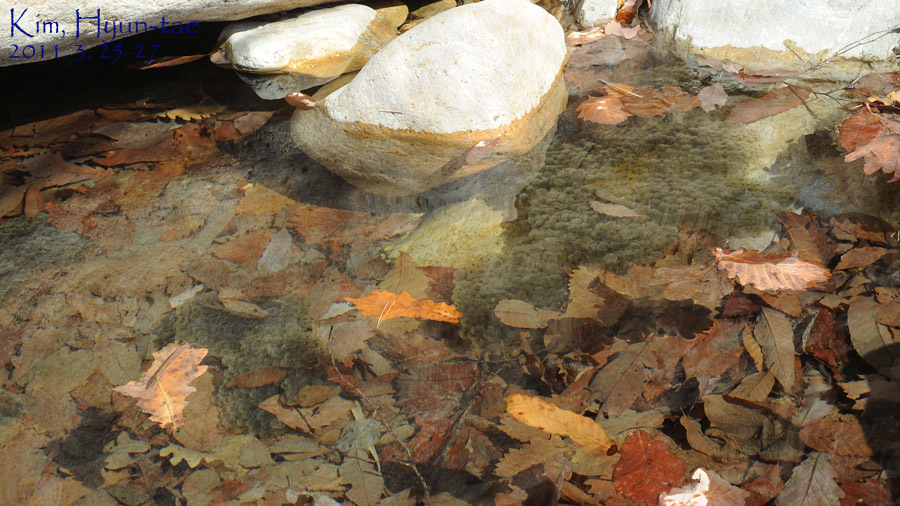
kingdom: Animalia
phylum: Chordata
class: Amphibia
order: Anura
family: Ranidae
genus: Rana
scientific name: Rana huanrenensis
